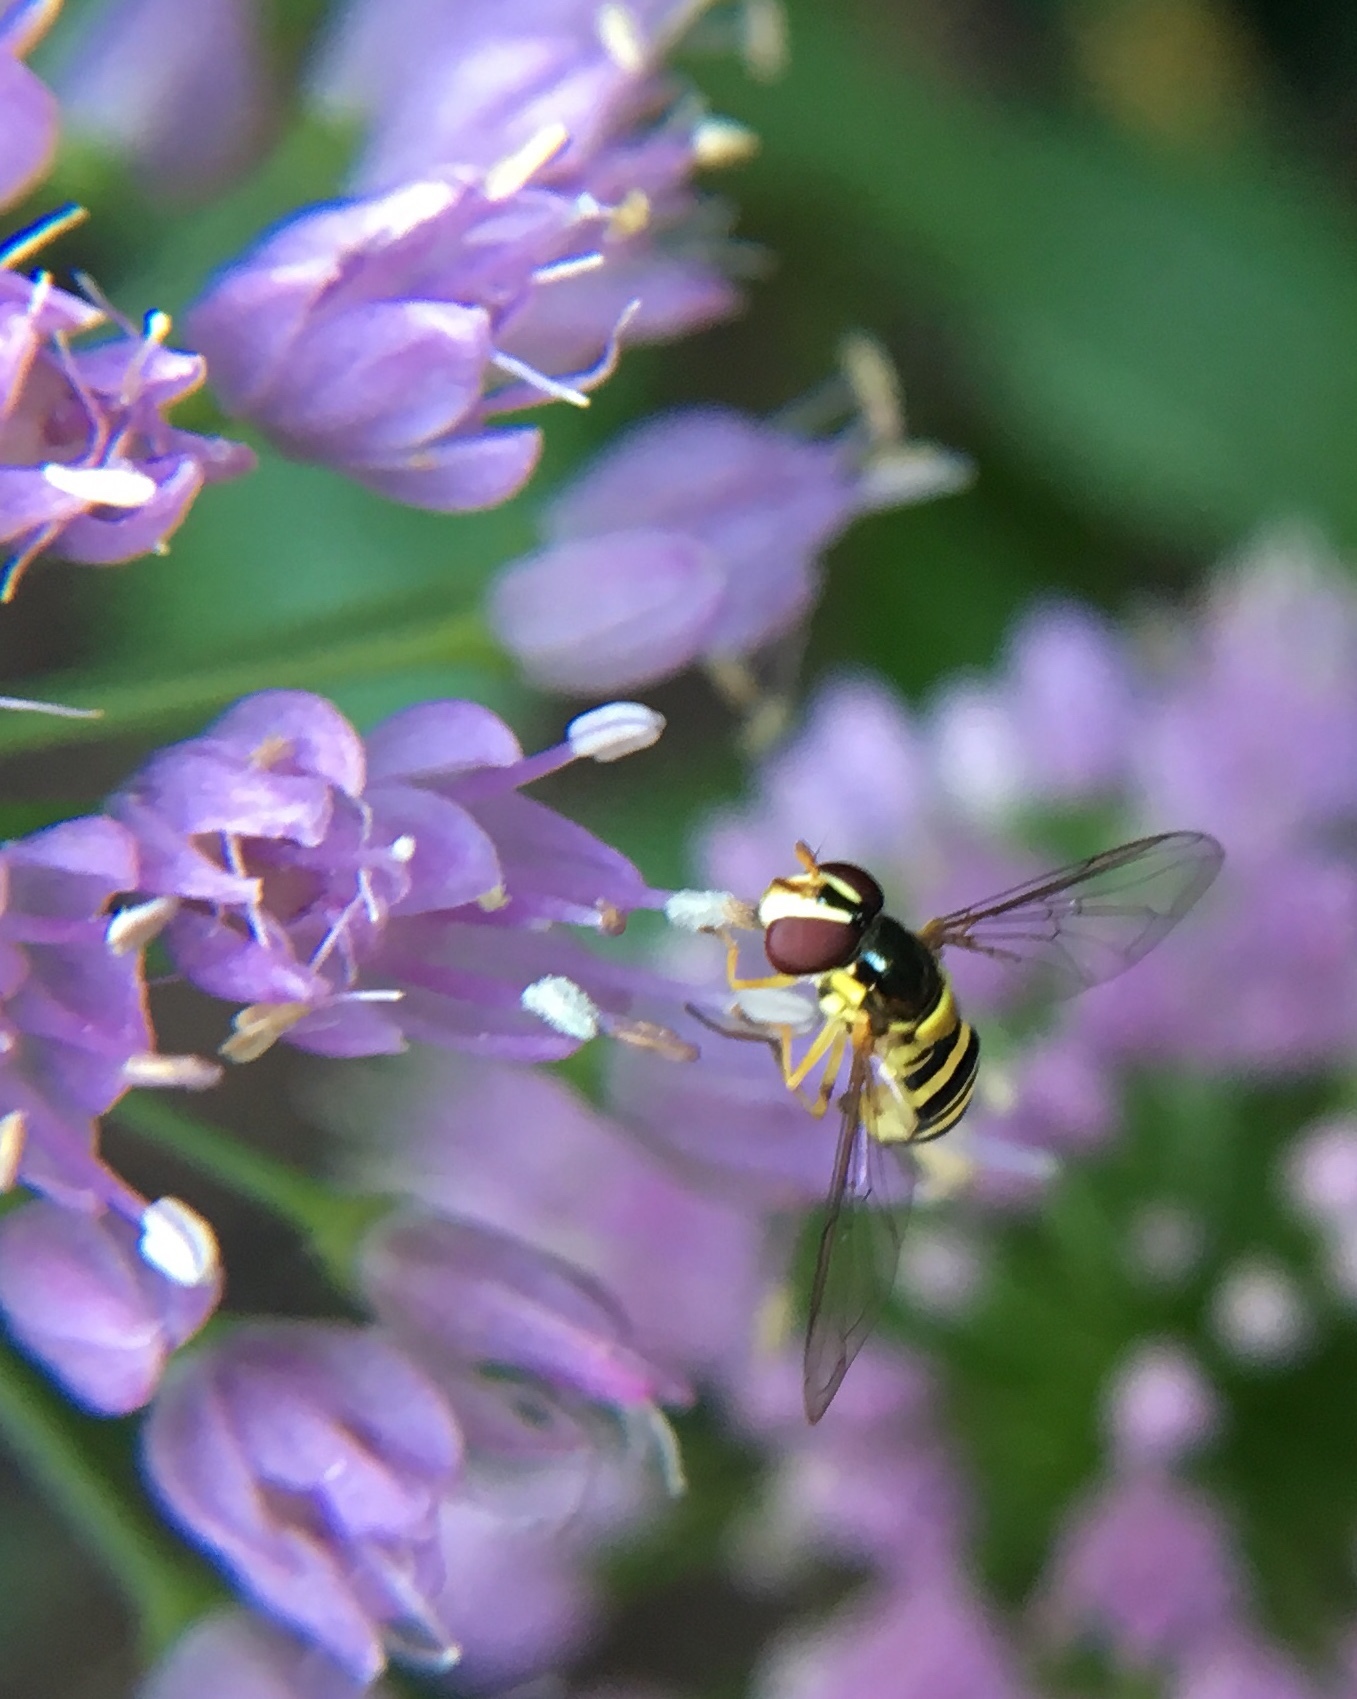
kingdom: Animalia
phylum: Arthropoda
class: Insecta
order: Diptera
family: Syrphidae
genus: Allograpta
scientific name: Allograpta obliqua
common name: Common oblique syrphid
